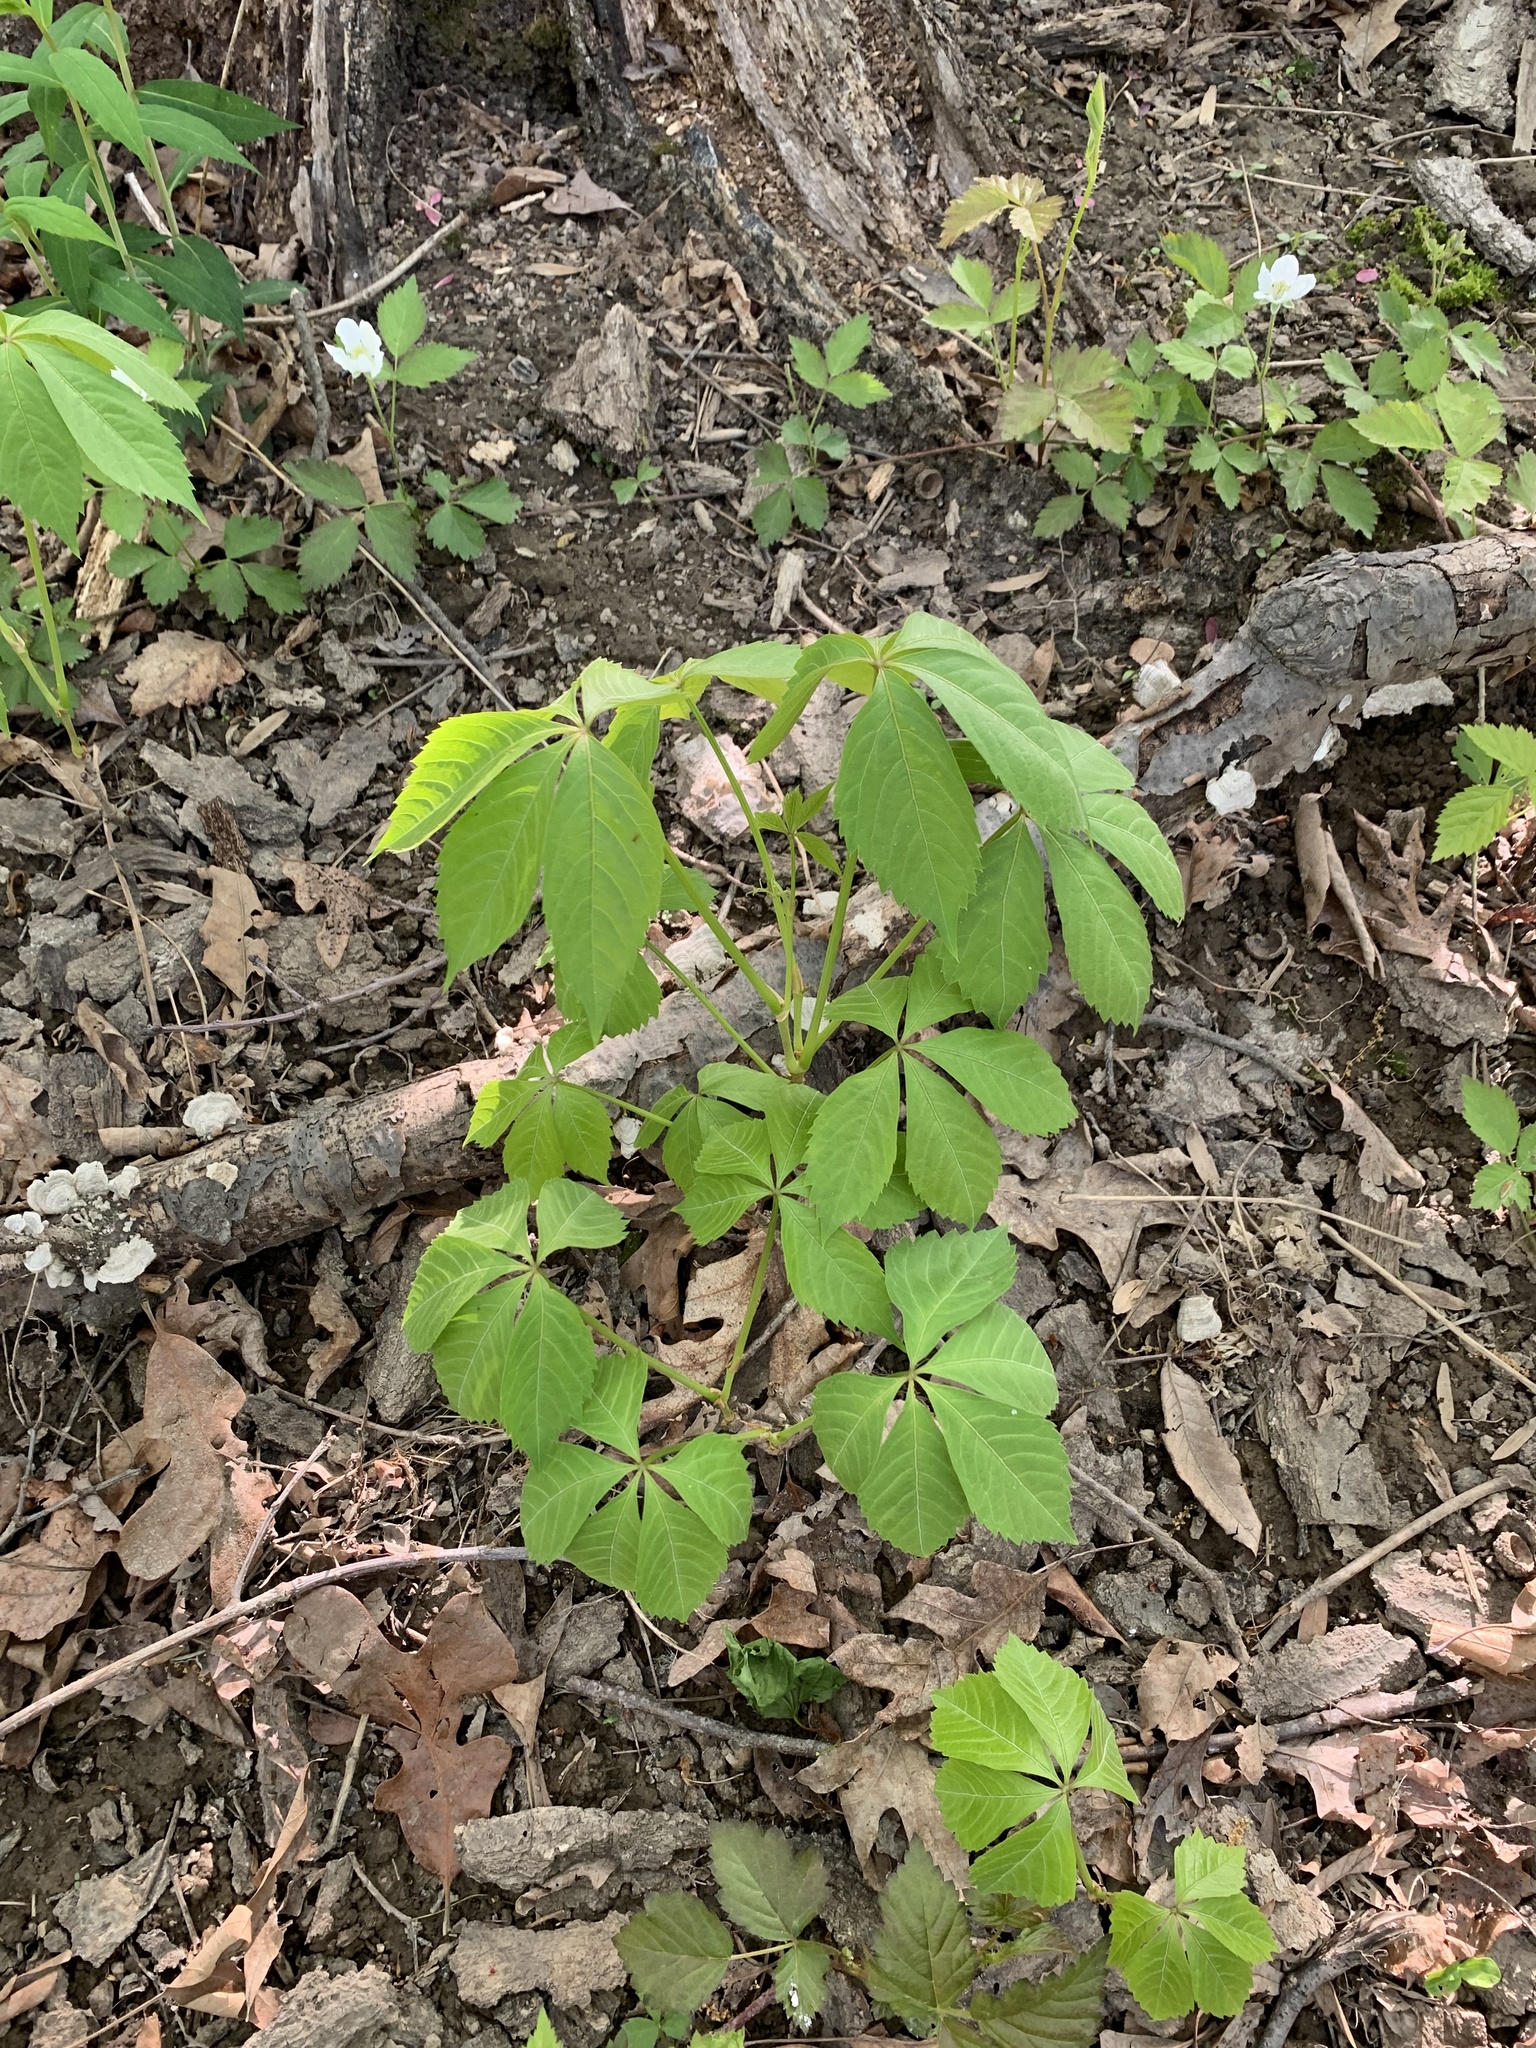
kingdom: Plantae
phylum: Tracheophyta
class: Magnoliopsida
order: Vitales
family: Vitaceae
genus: Parthenocissus
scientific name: Parthenocissus quinquefolia
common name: Virginia-creeper
